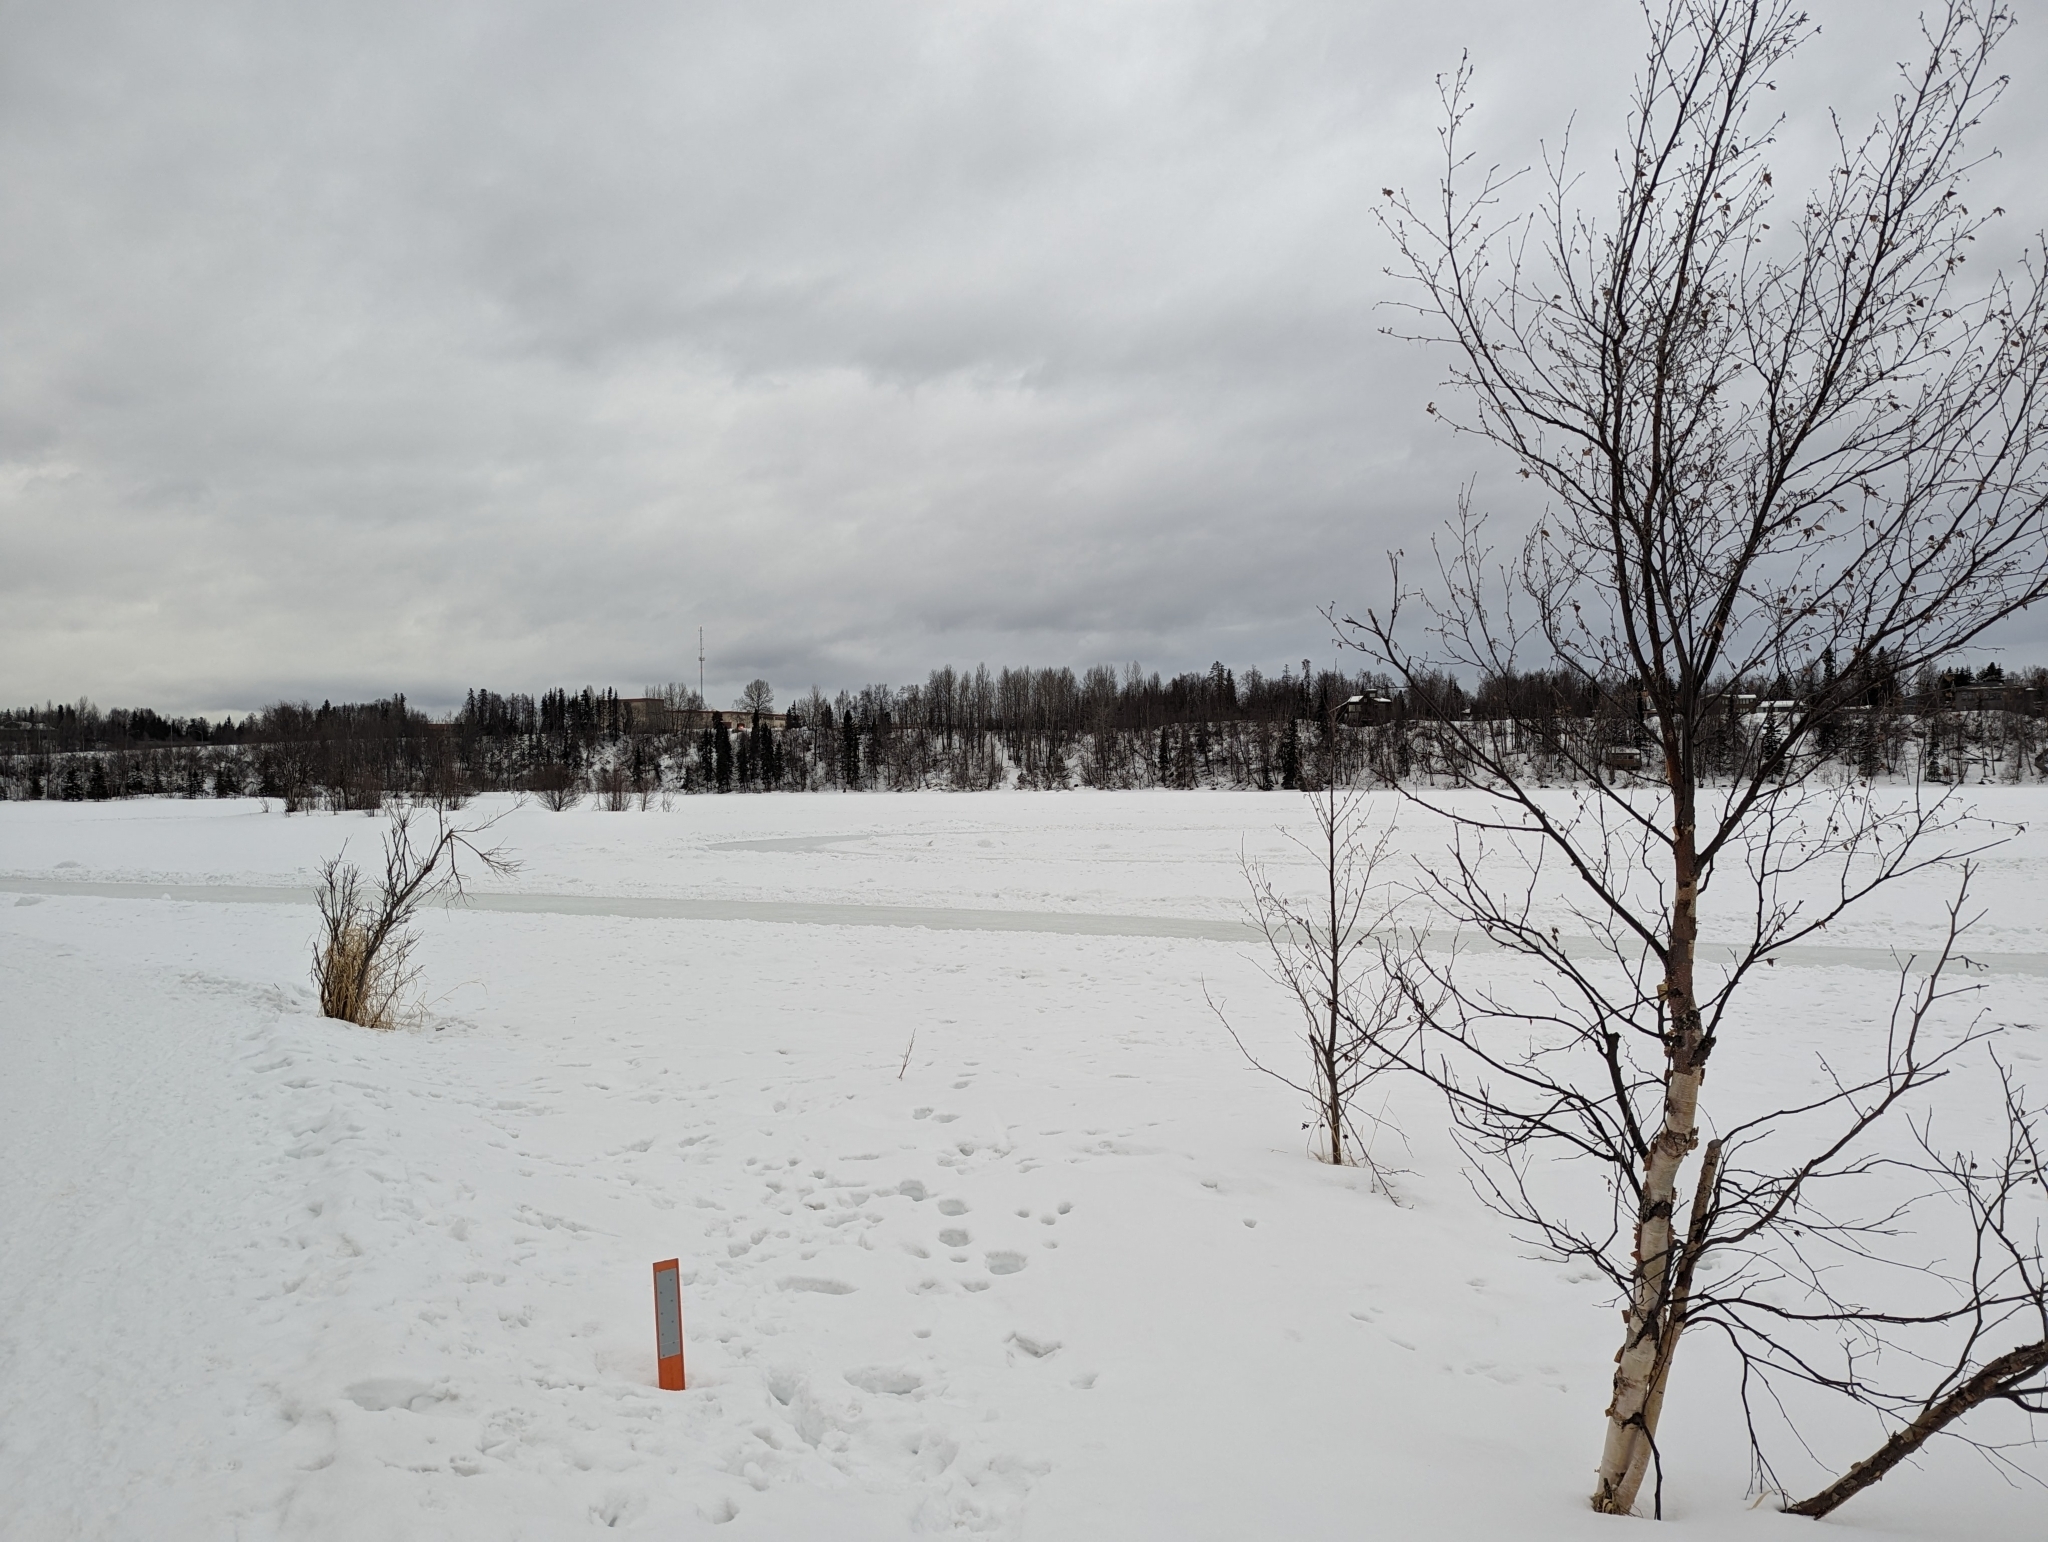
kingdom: Animalia
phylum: Chordata
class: Mammalia
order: Artiodactyla
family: Cervidae
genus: Alces
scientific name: Alces alces
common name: Moose
